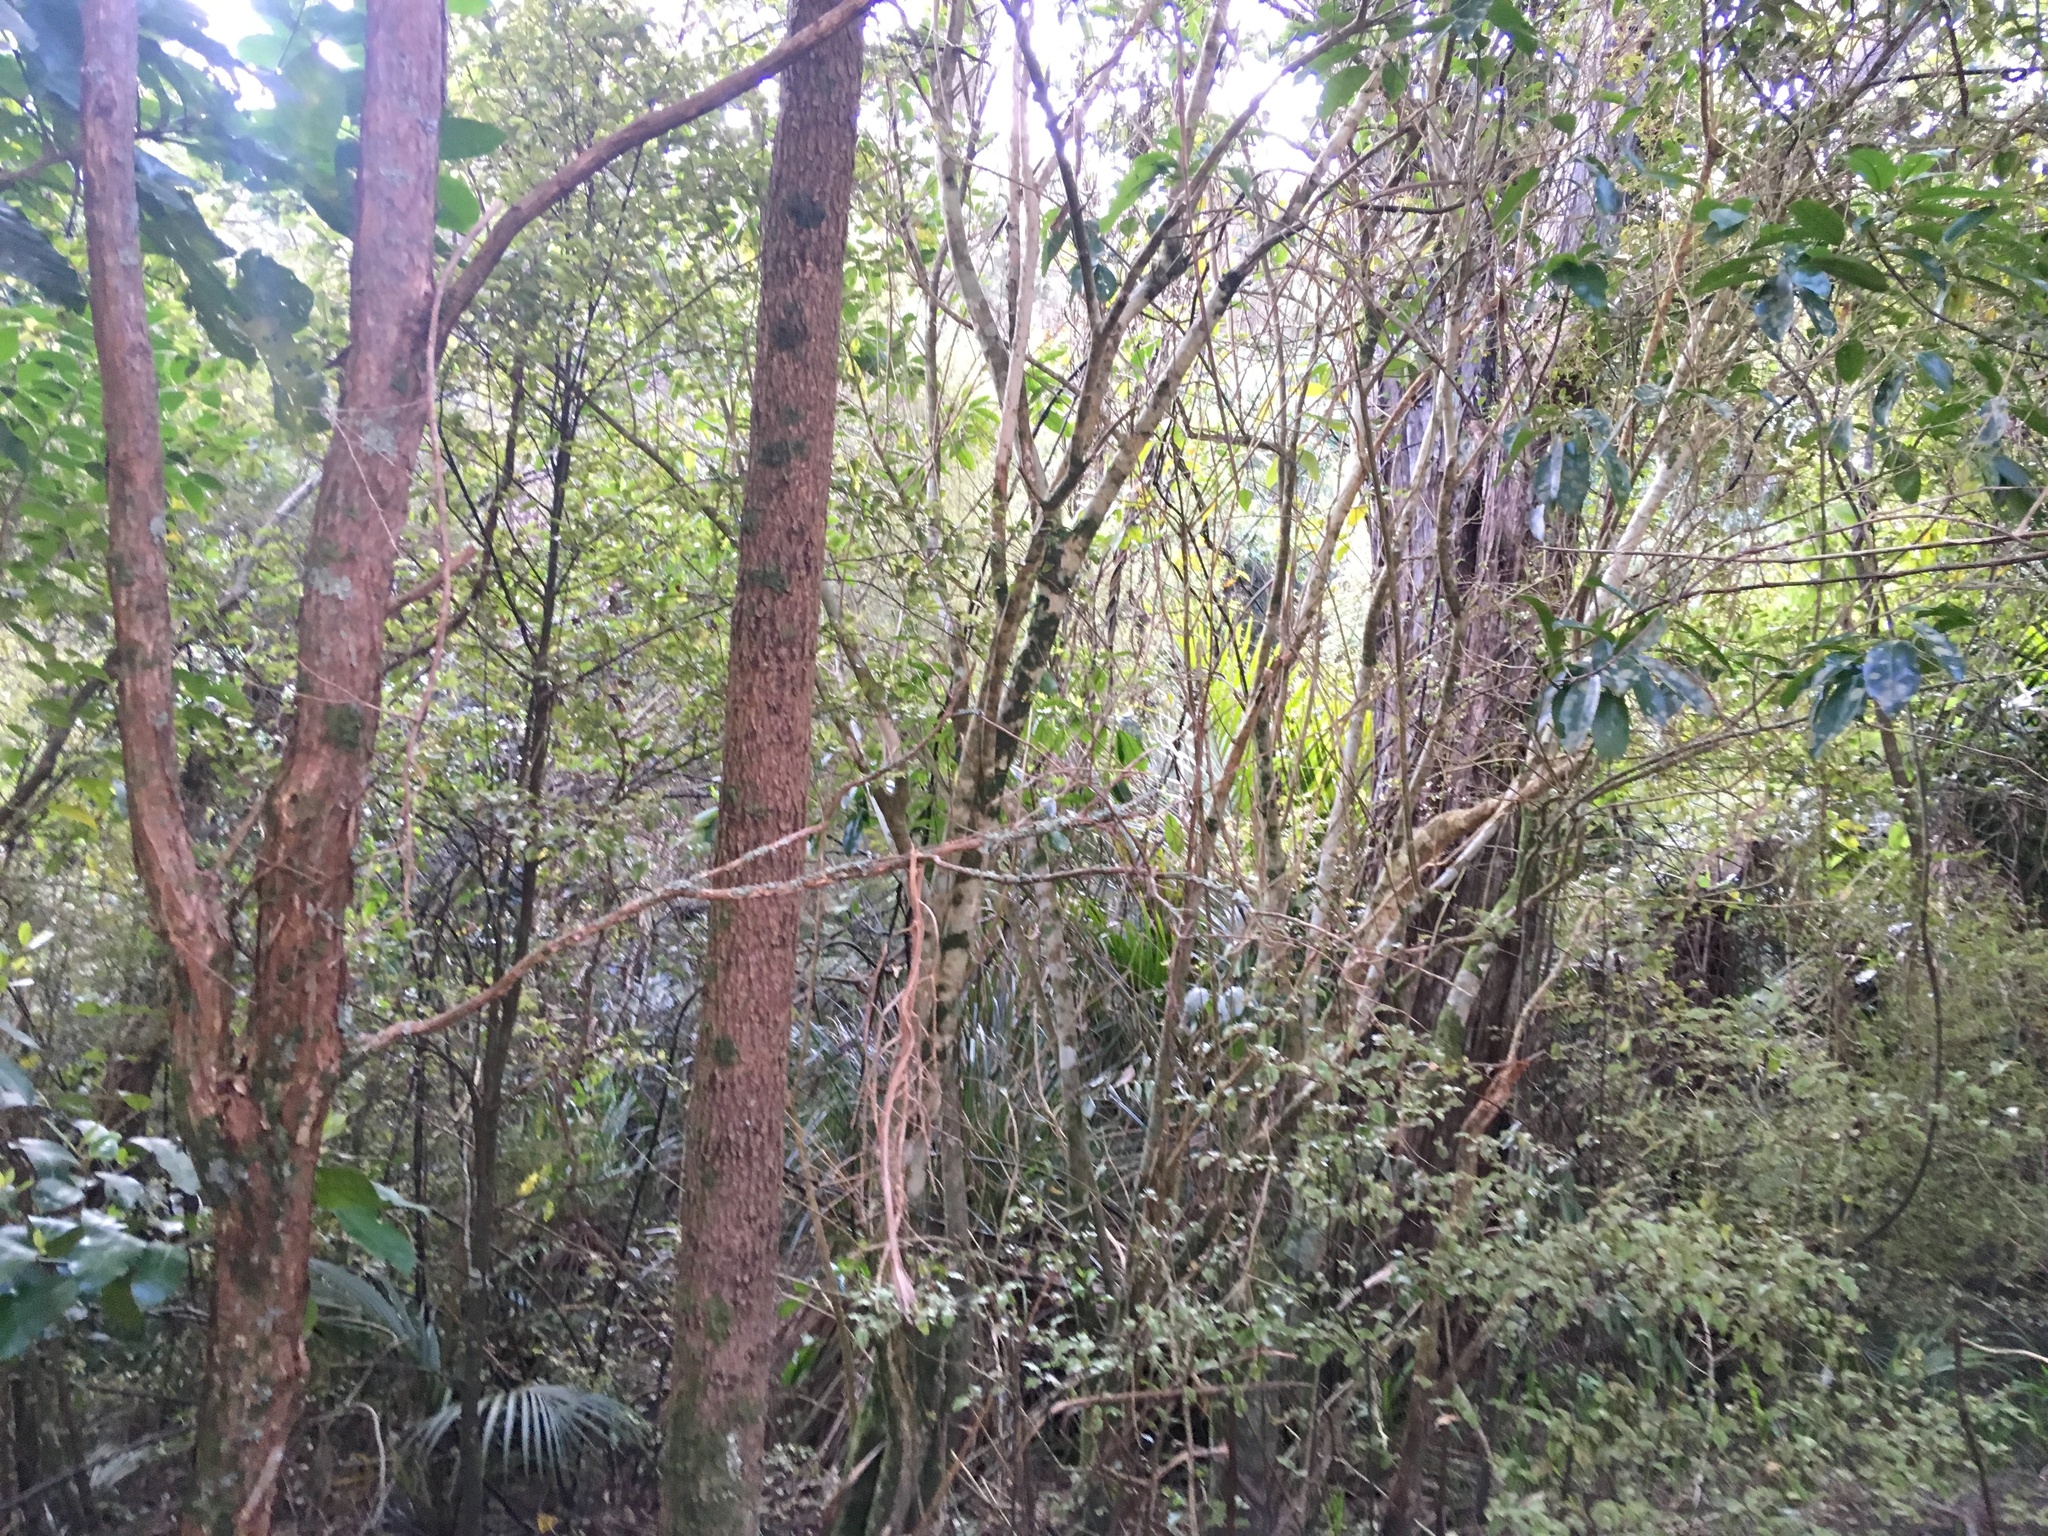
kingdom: Plantae
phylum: Tracheophyta
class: Liliopsida
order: Asparagales
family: Asparagaceae
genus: Cordyline
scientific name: Cordyline australis
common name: Cabbage-palm
